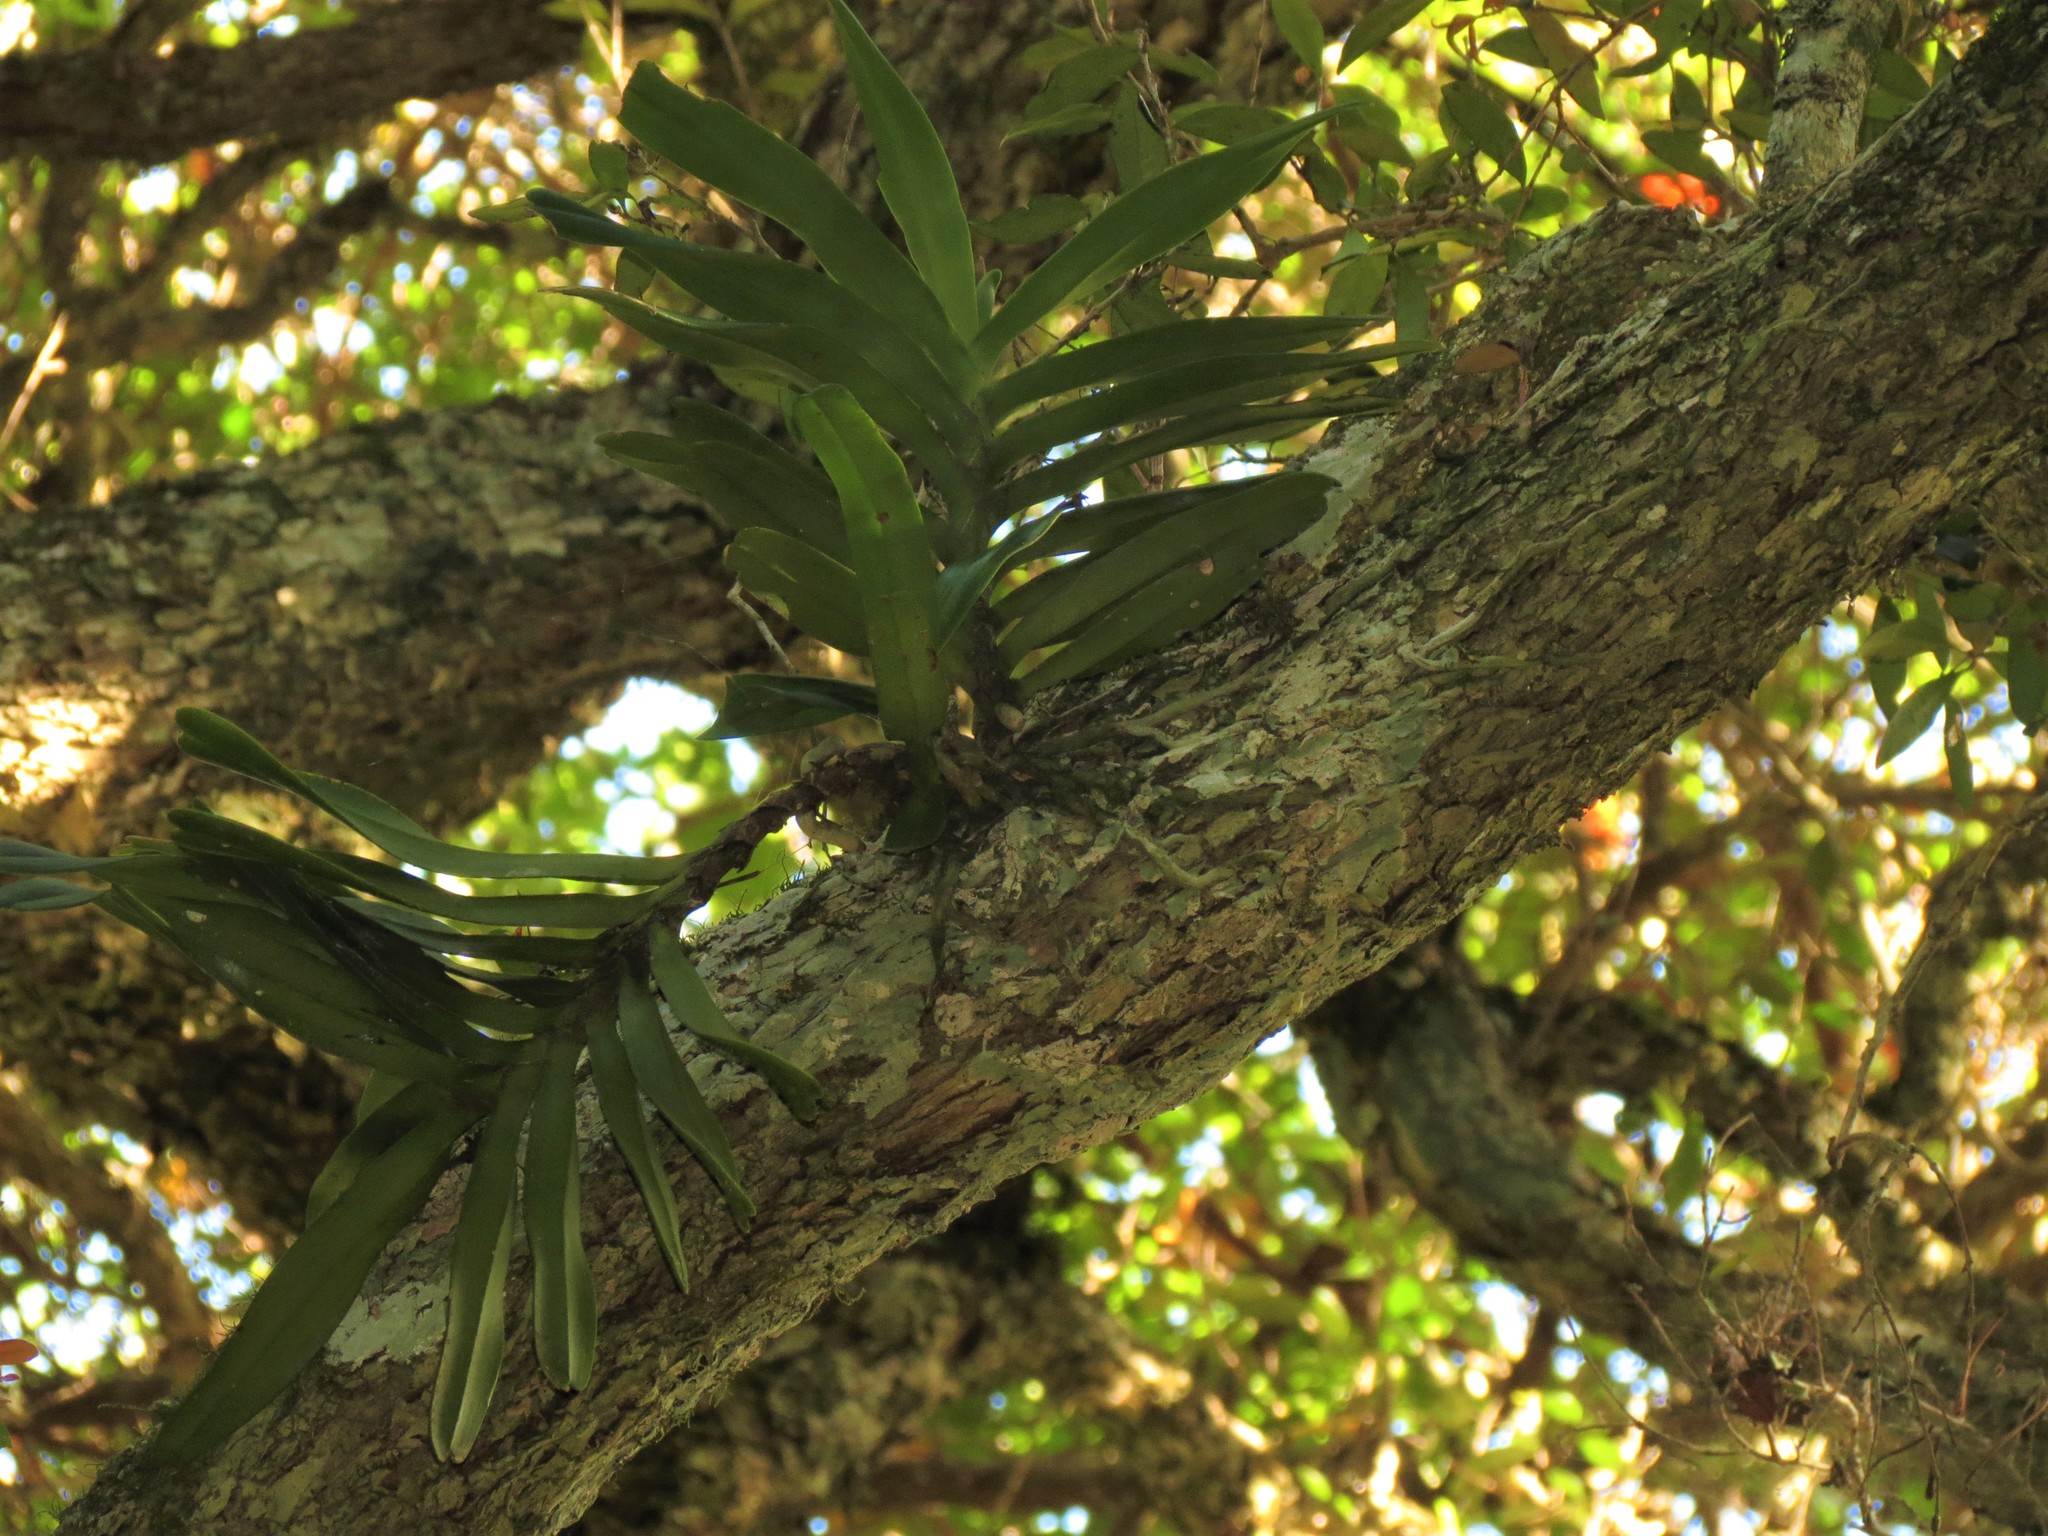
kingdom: Plantae
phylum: Tracheophyta
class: Liliopsida
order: Asparagales
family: Orchidaceae
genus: Cyrtorchis
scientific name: Cyrtorchis arcuata
